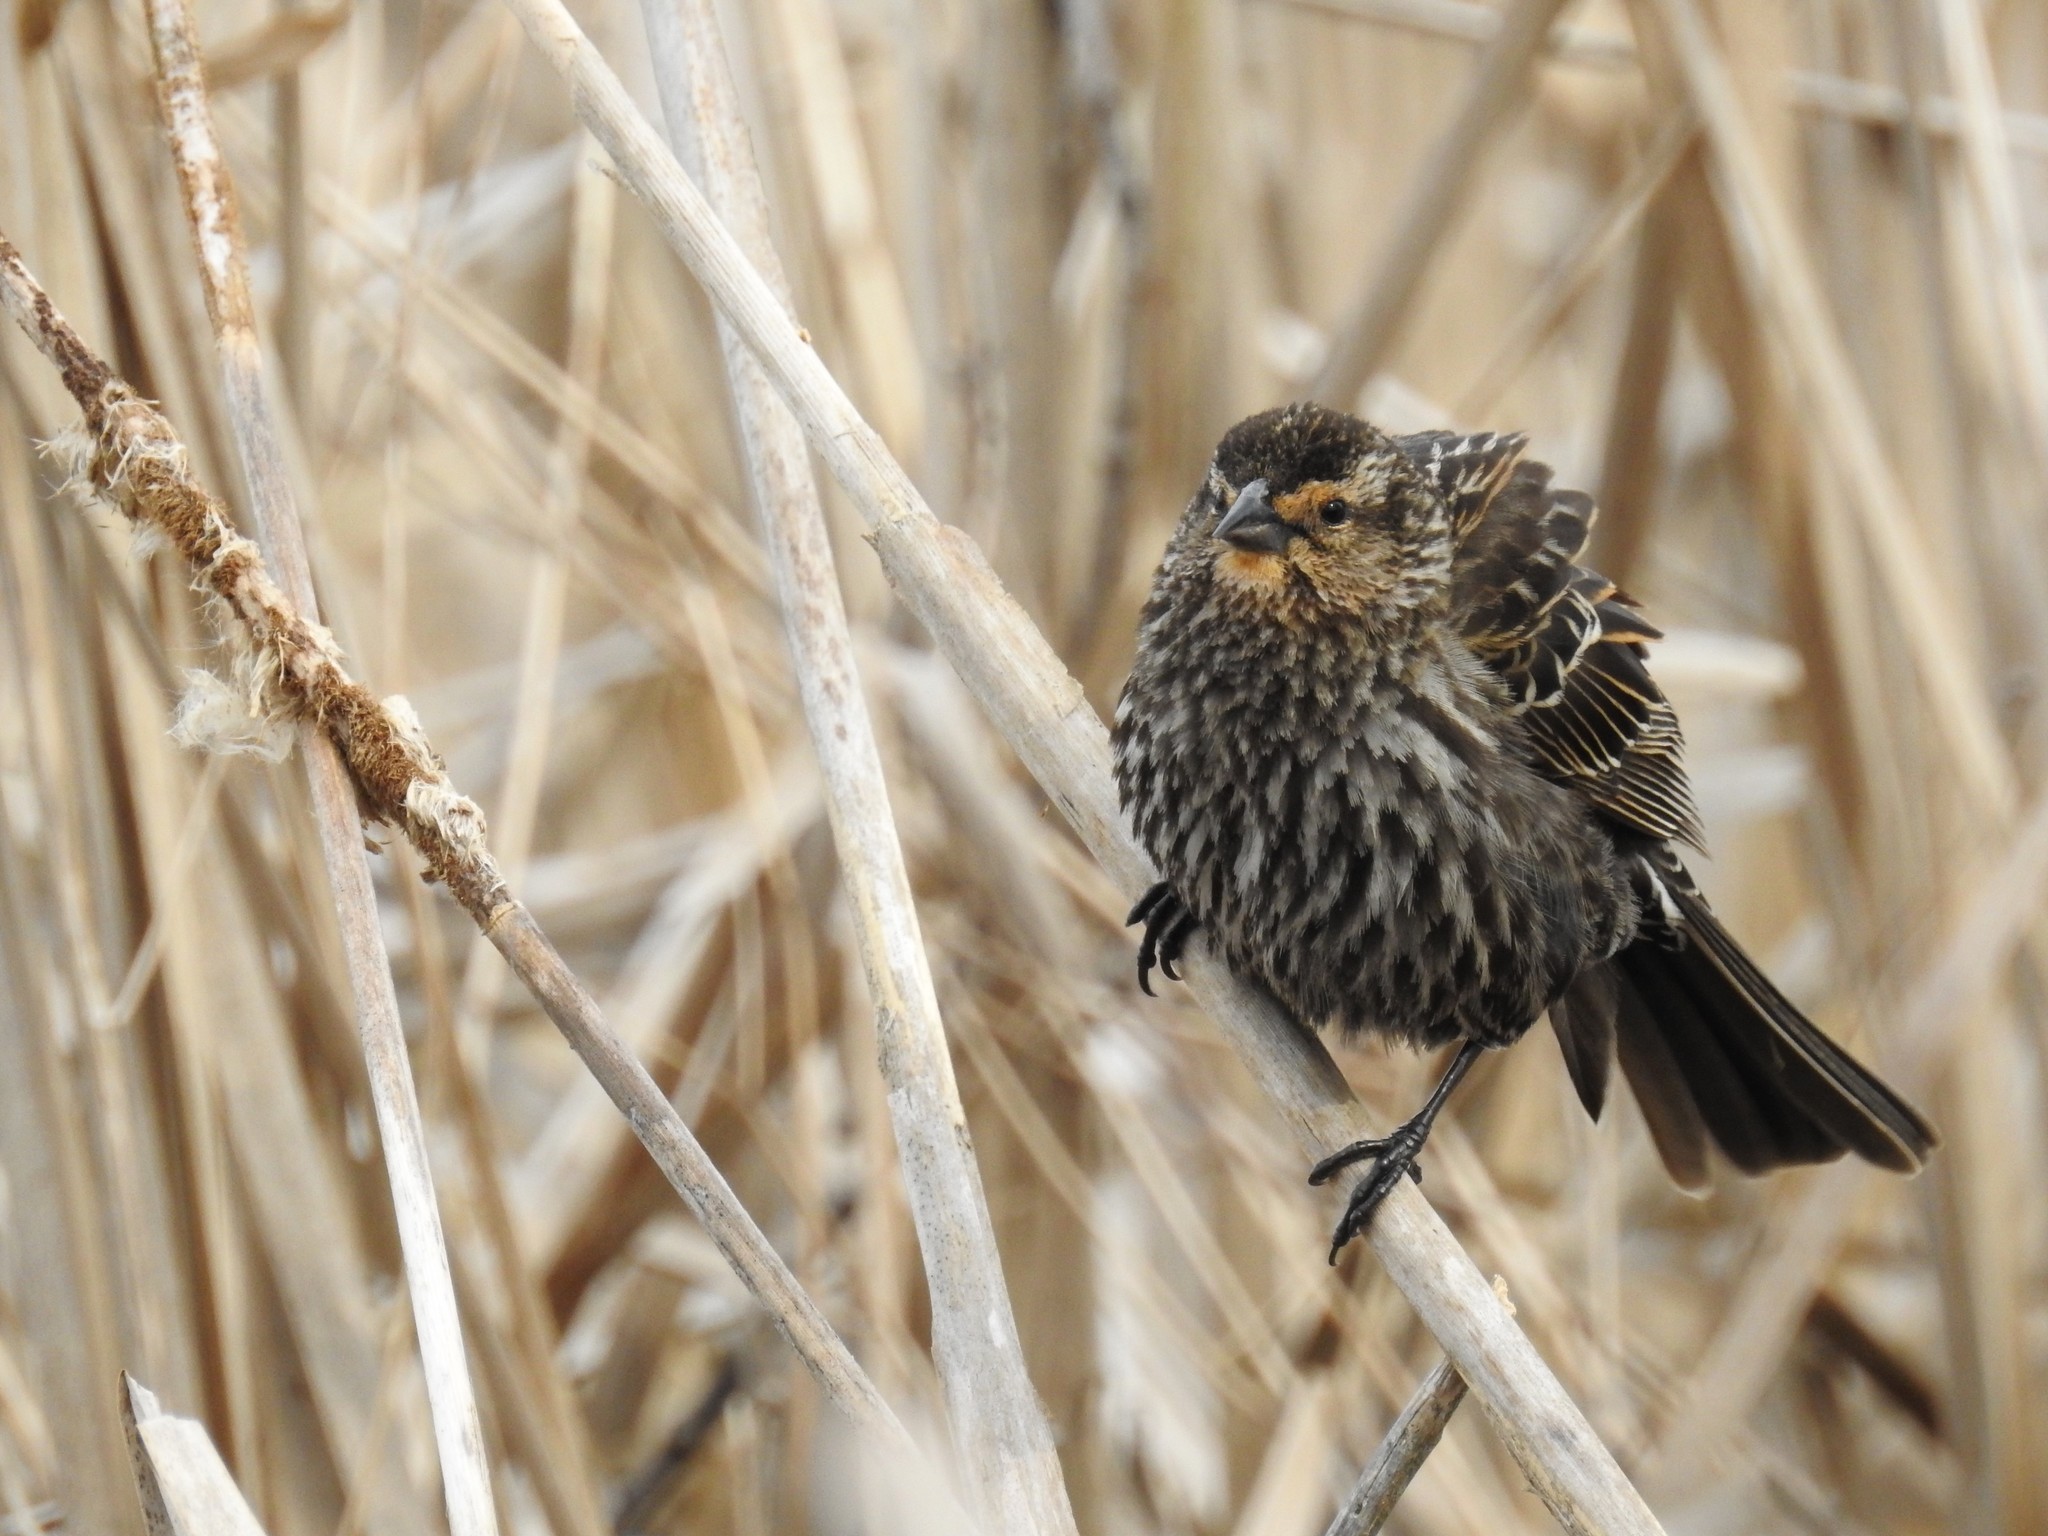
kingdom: Animalia
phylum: Chordata
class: Aves
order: Passeriformes
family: Icteridae
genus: Agelaius
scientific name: Agelaius phoeniceus
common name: Red-winged blackbird
